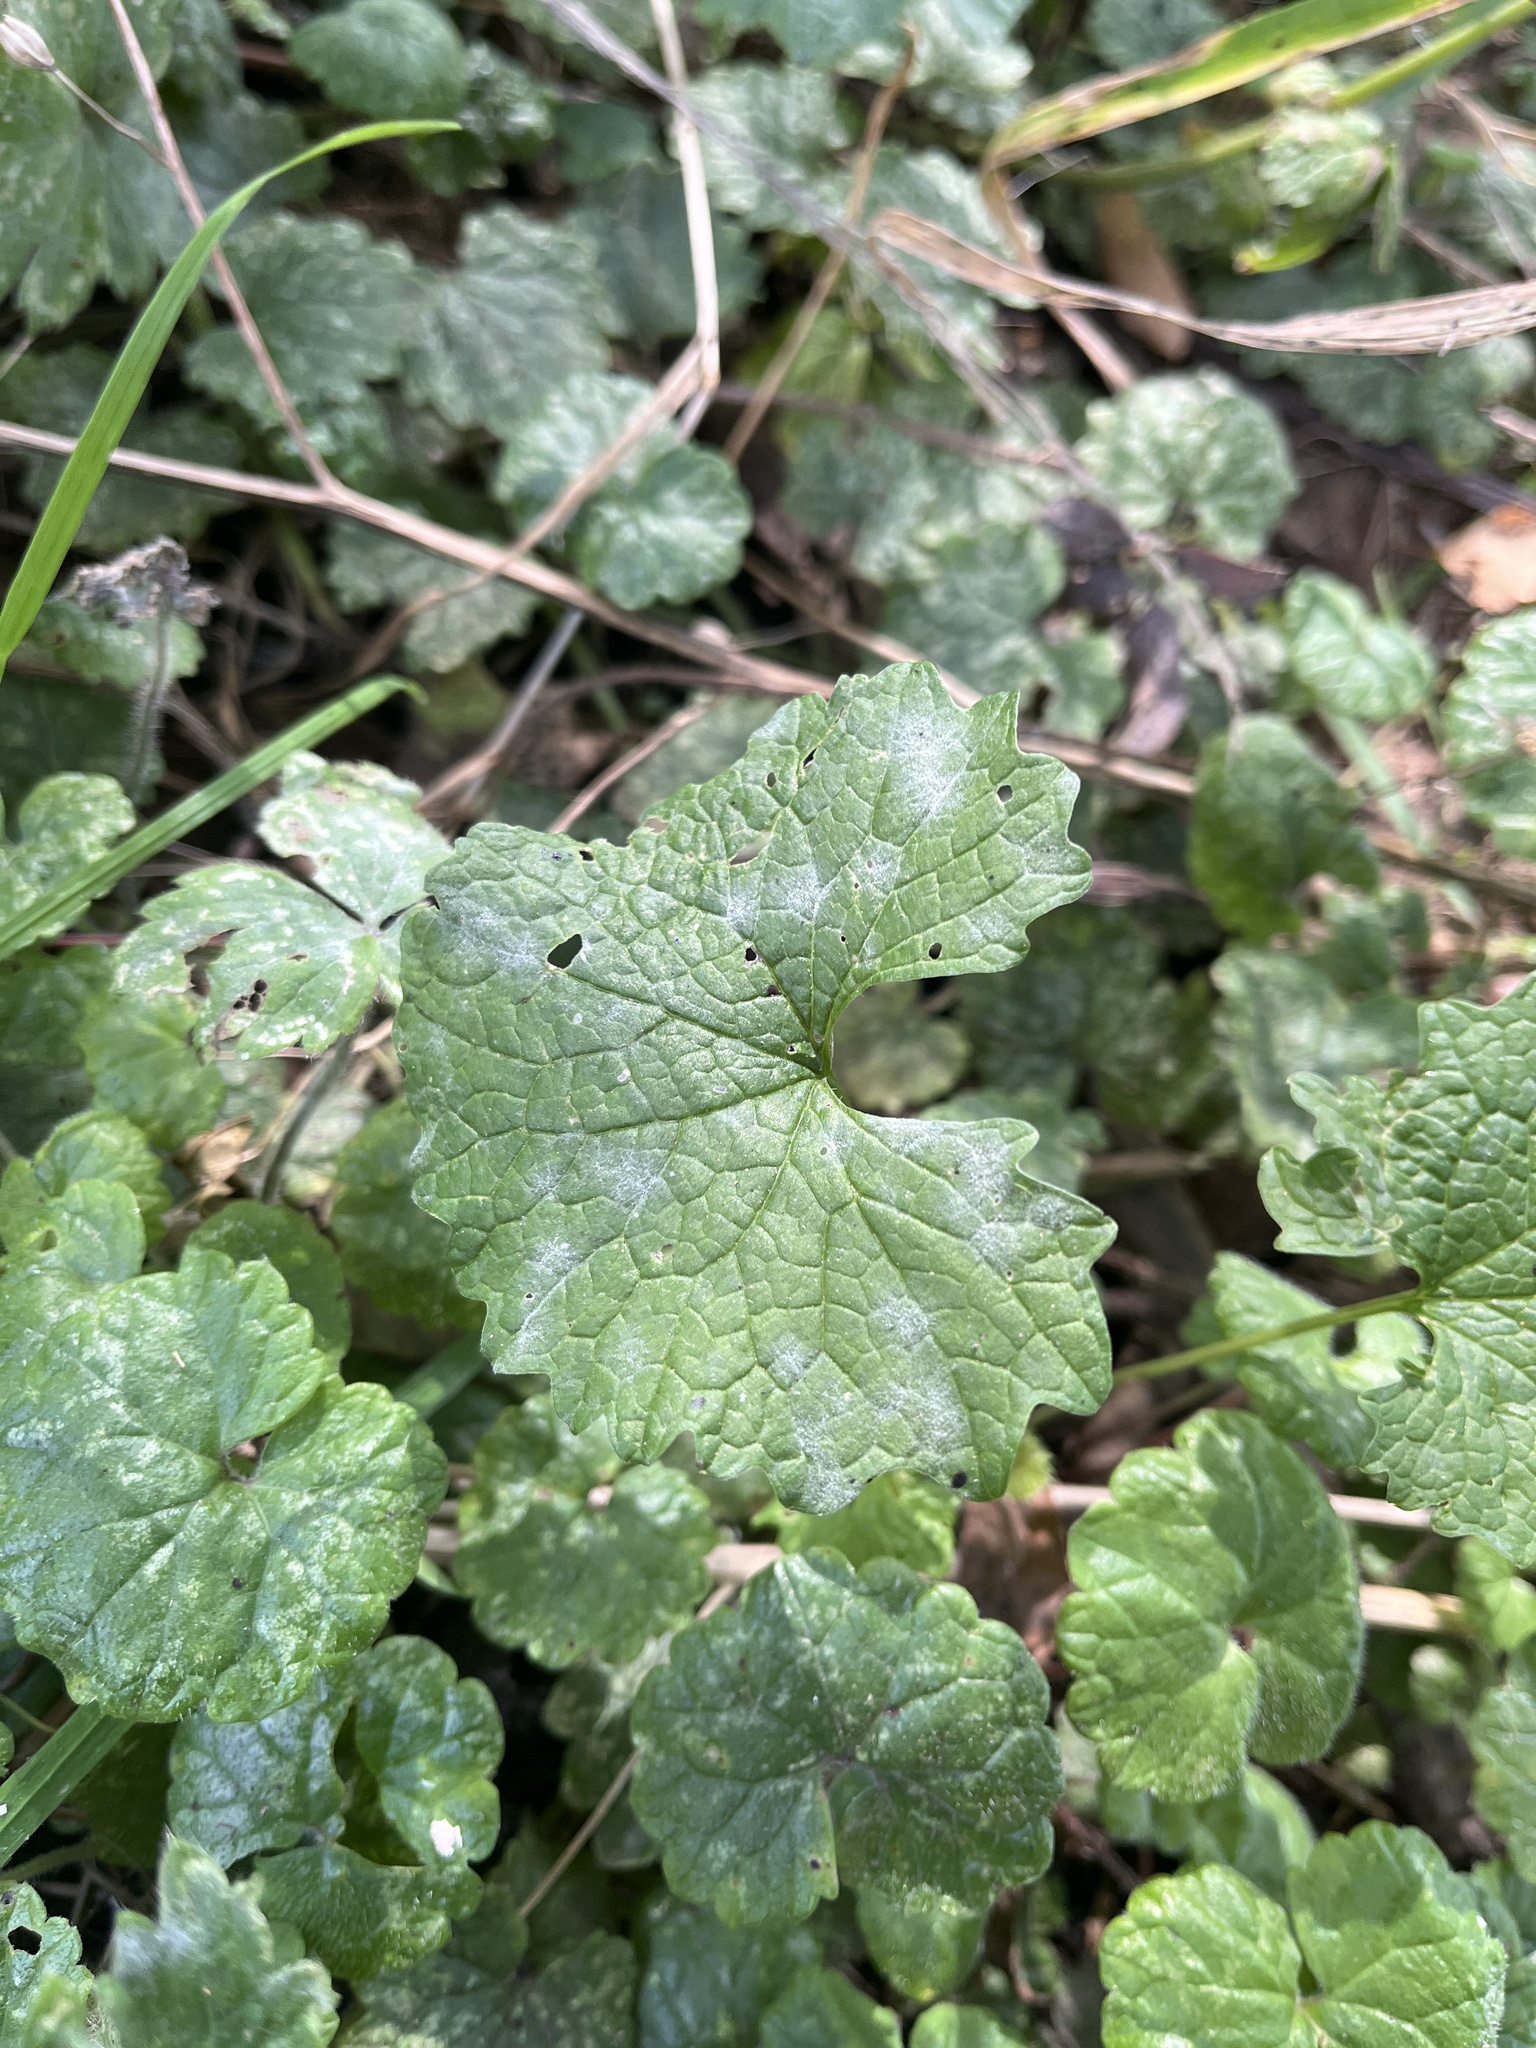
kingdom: Fungi
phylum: Ascomycota
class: Leotiomycetes
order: Helotiales
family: Erysiphaceae
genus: Erysiphe
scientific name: Erysiphe cruciferarum
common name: Brassica powdery mildew
